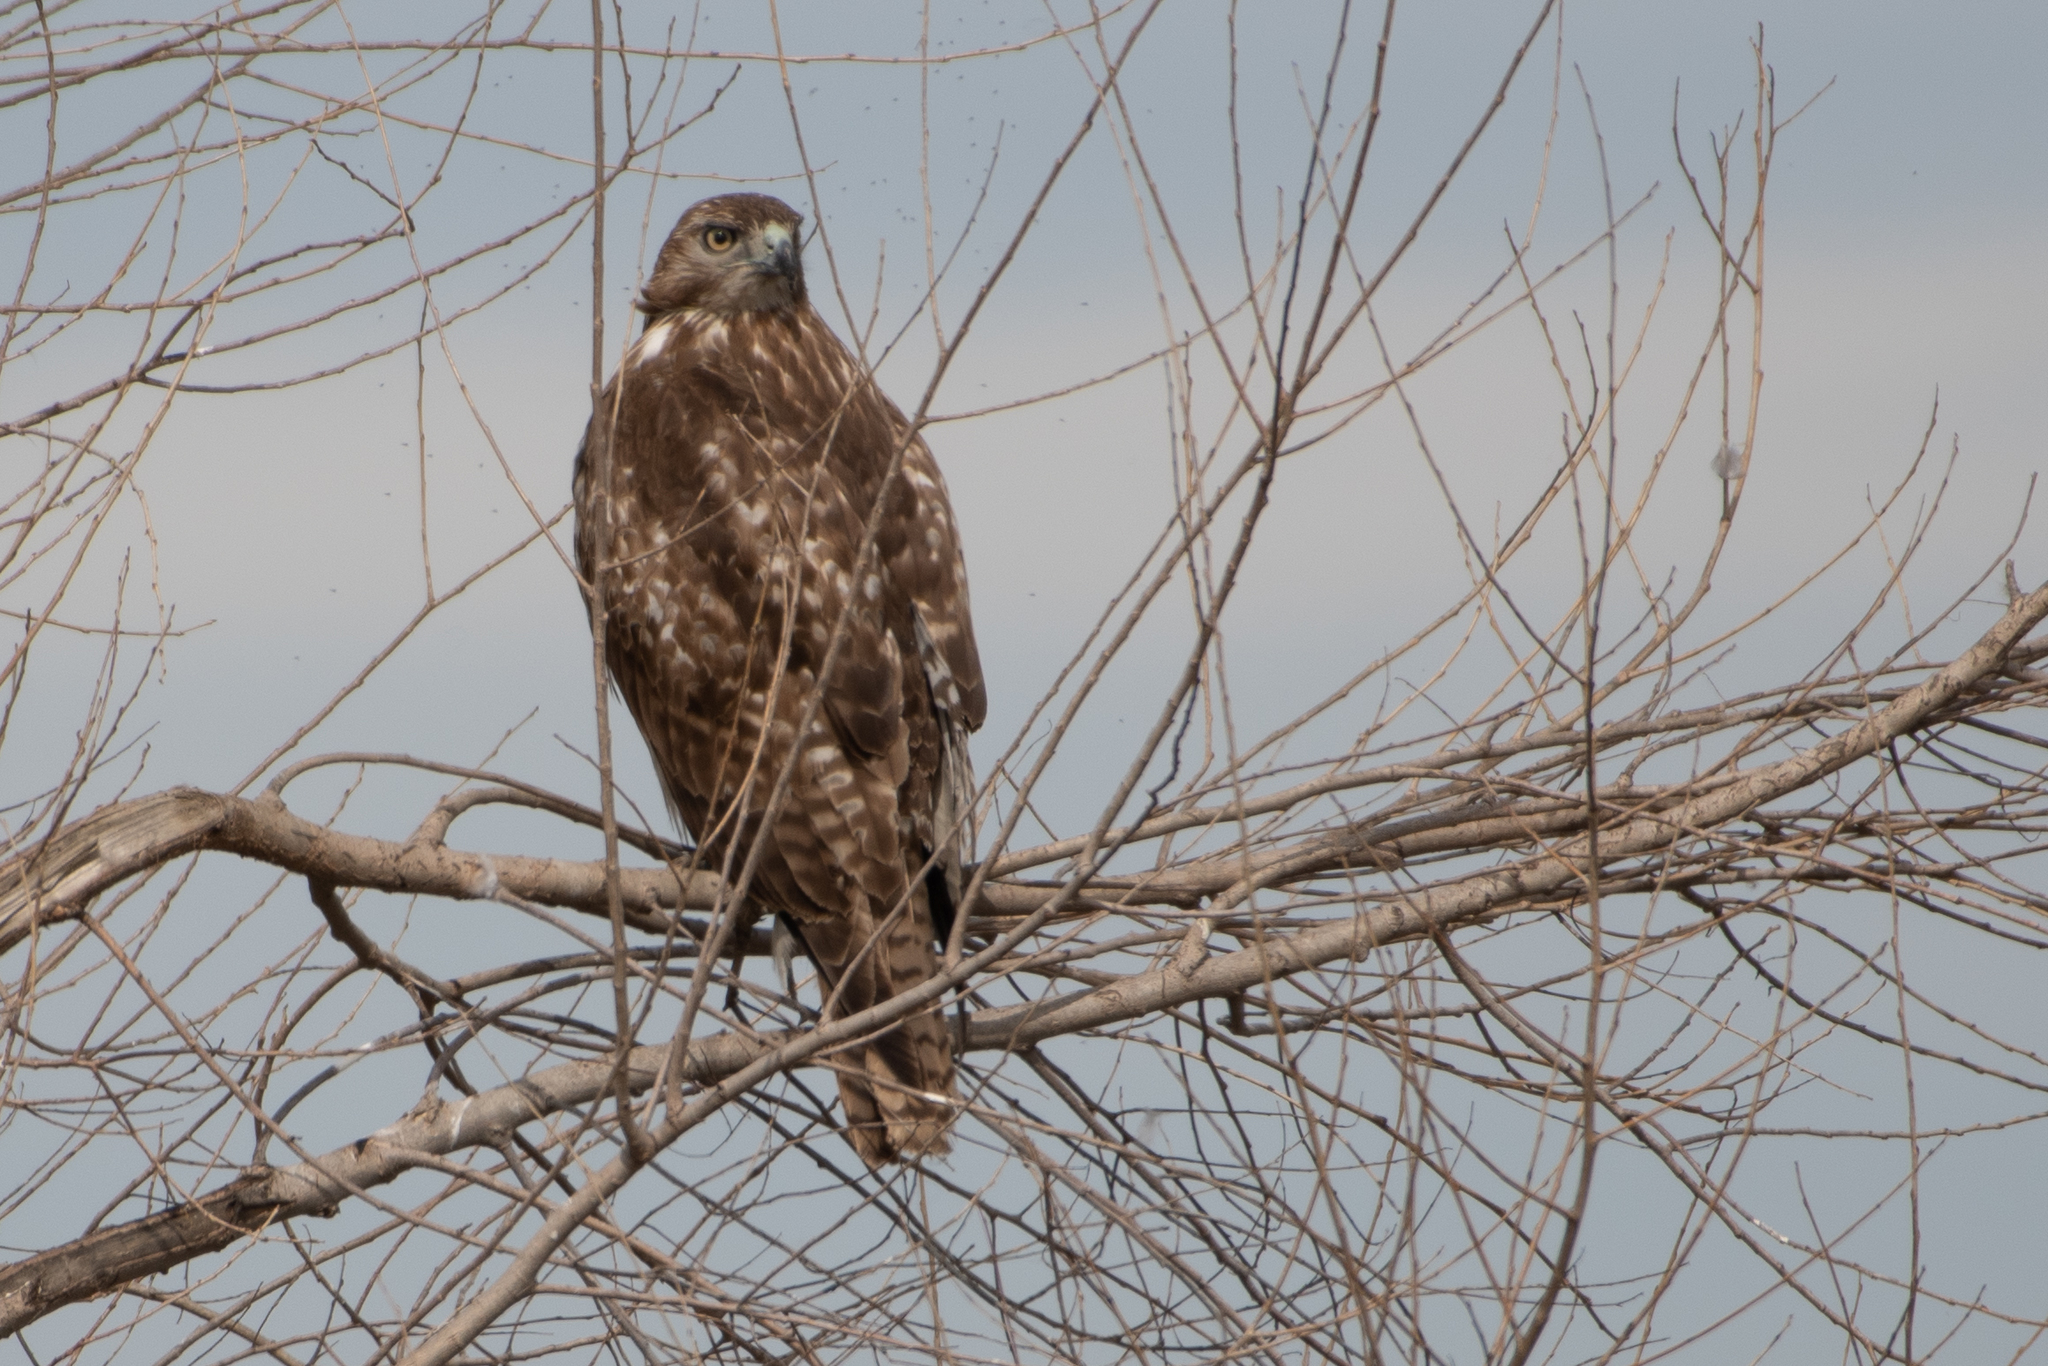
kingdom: Animalia
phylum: Chordata
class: Aves
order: Accipitriformes
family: Accipitridae
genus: Buteo
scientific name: Buteo jamaicensis
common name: Red-tailed hawk
